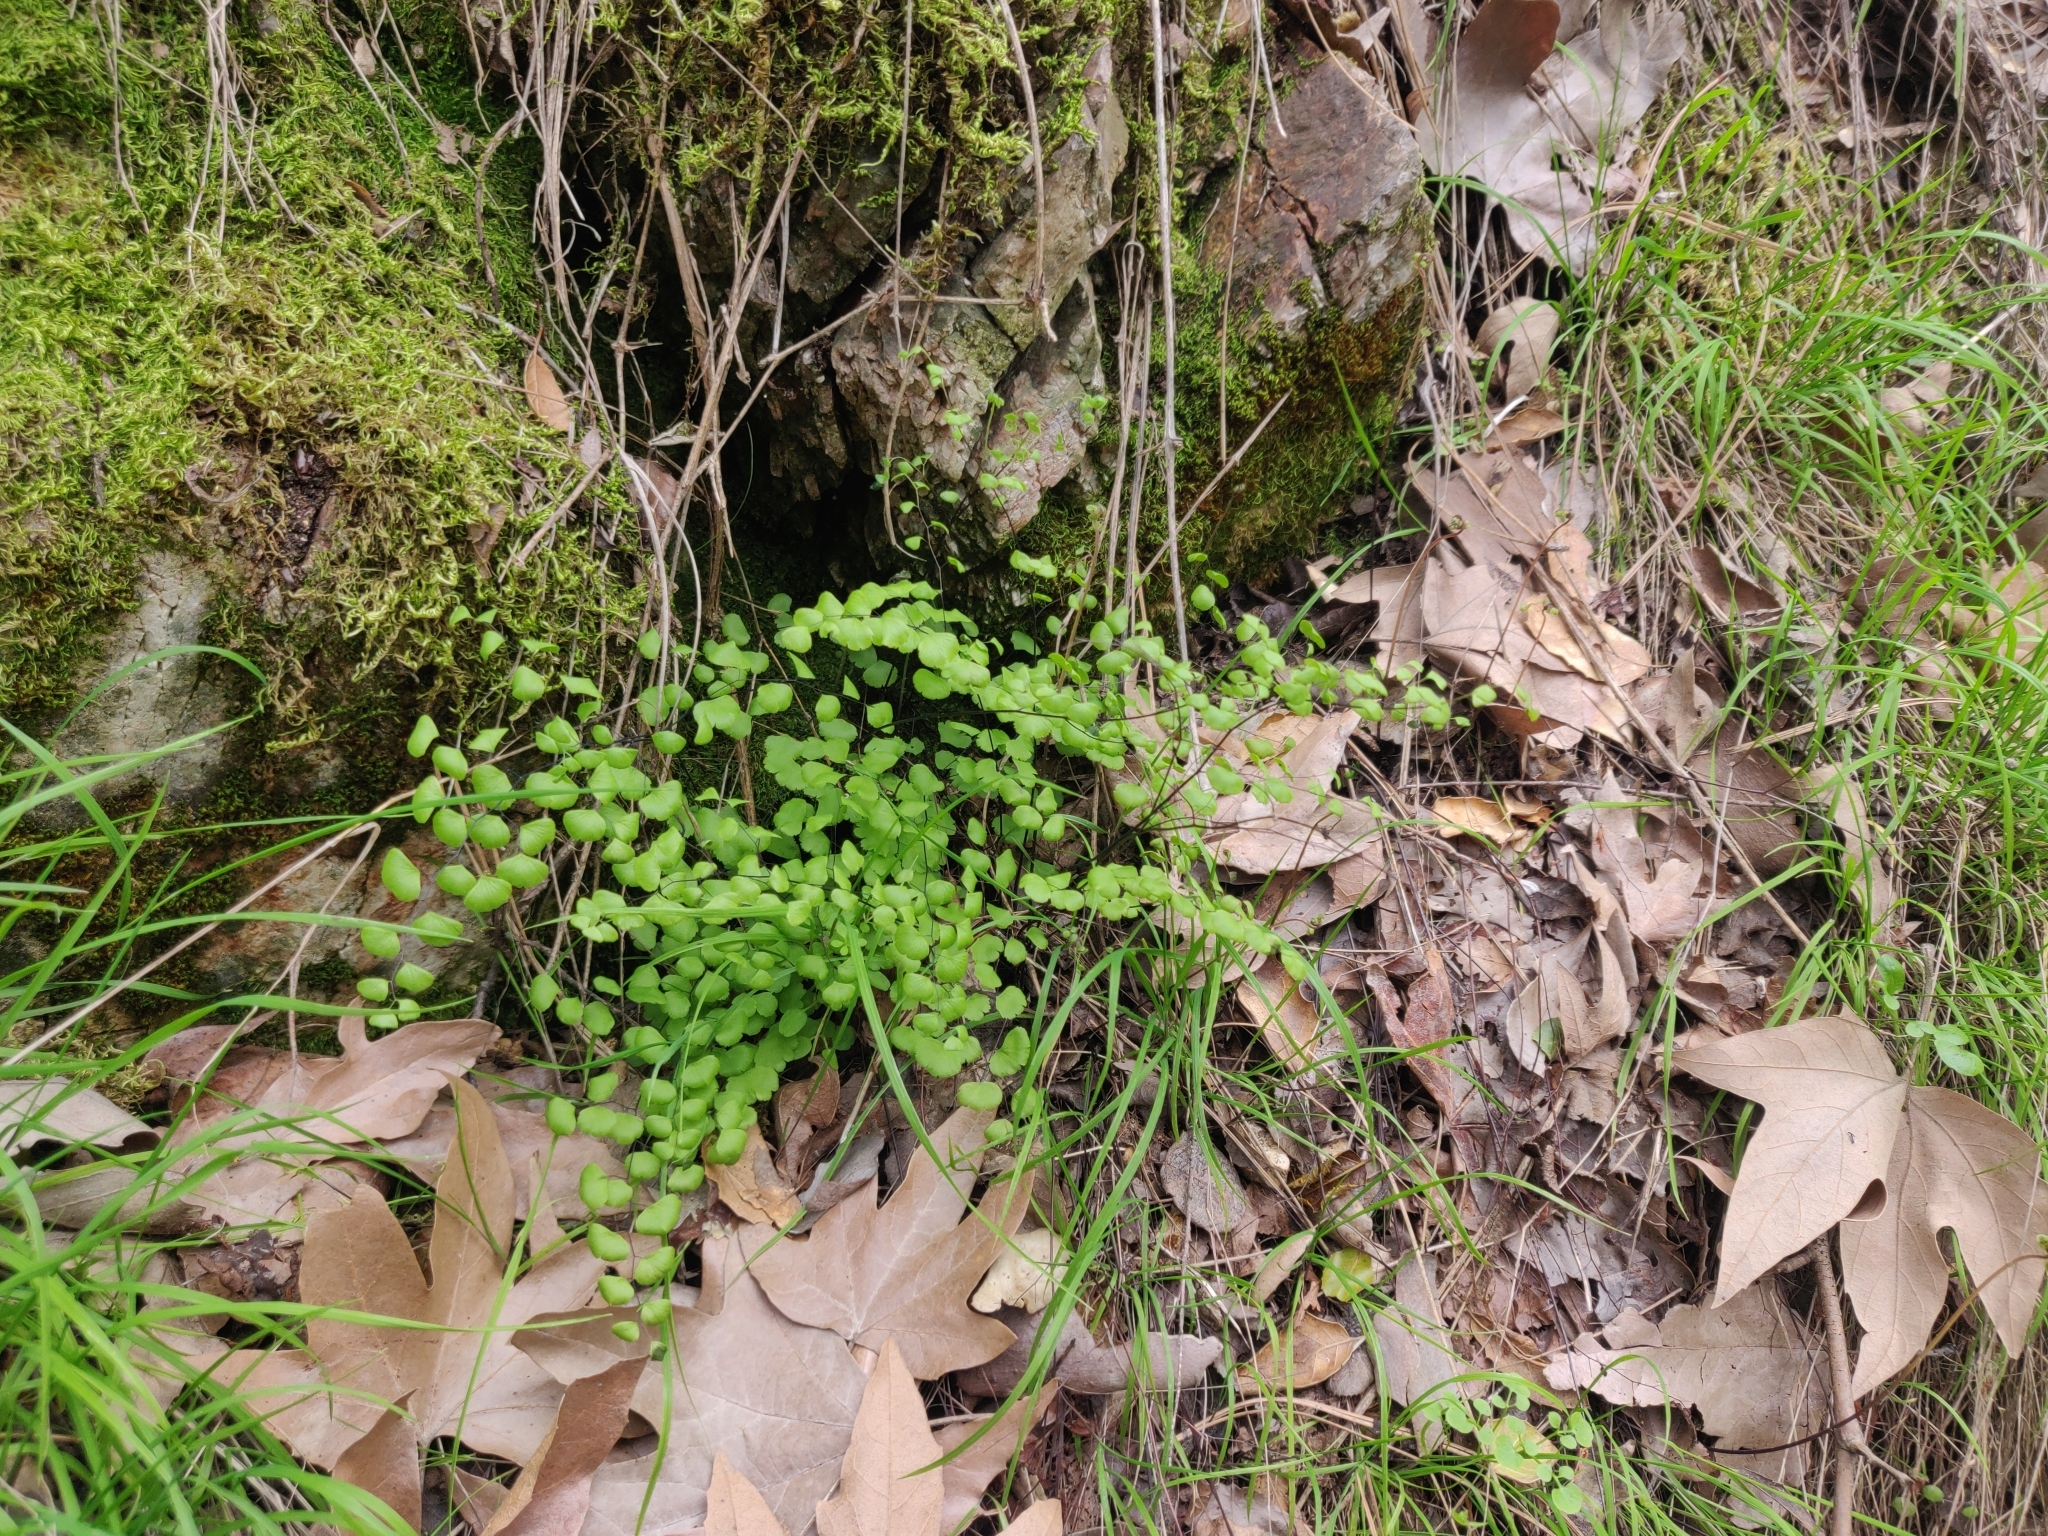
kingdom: Plantae
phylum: Tracheophyta
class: Polypodiopsida
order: Polypodiales
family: Pteridaceae
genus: Adiantum
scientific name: Adiantum jordanii
